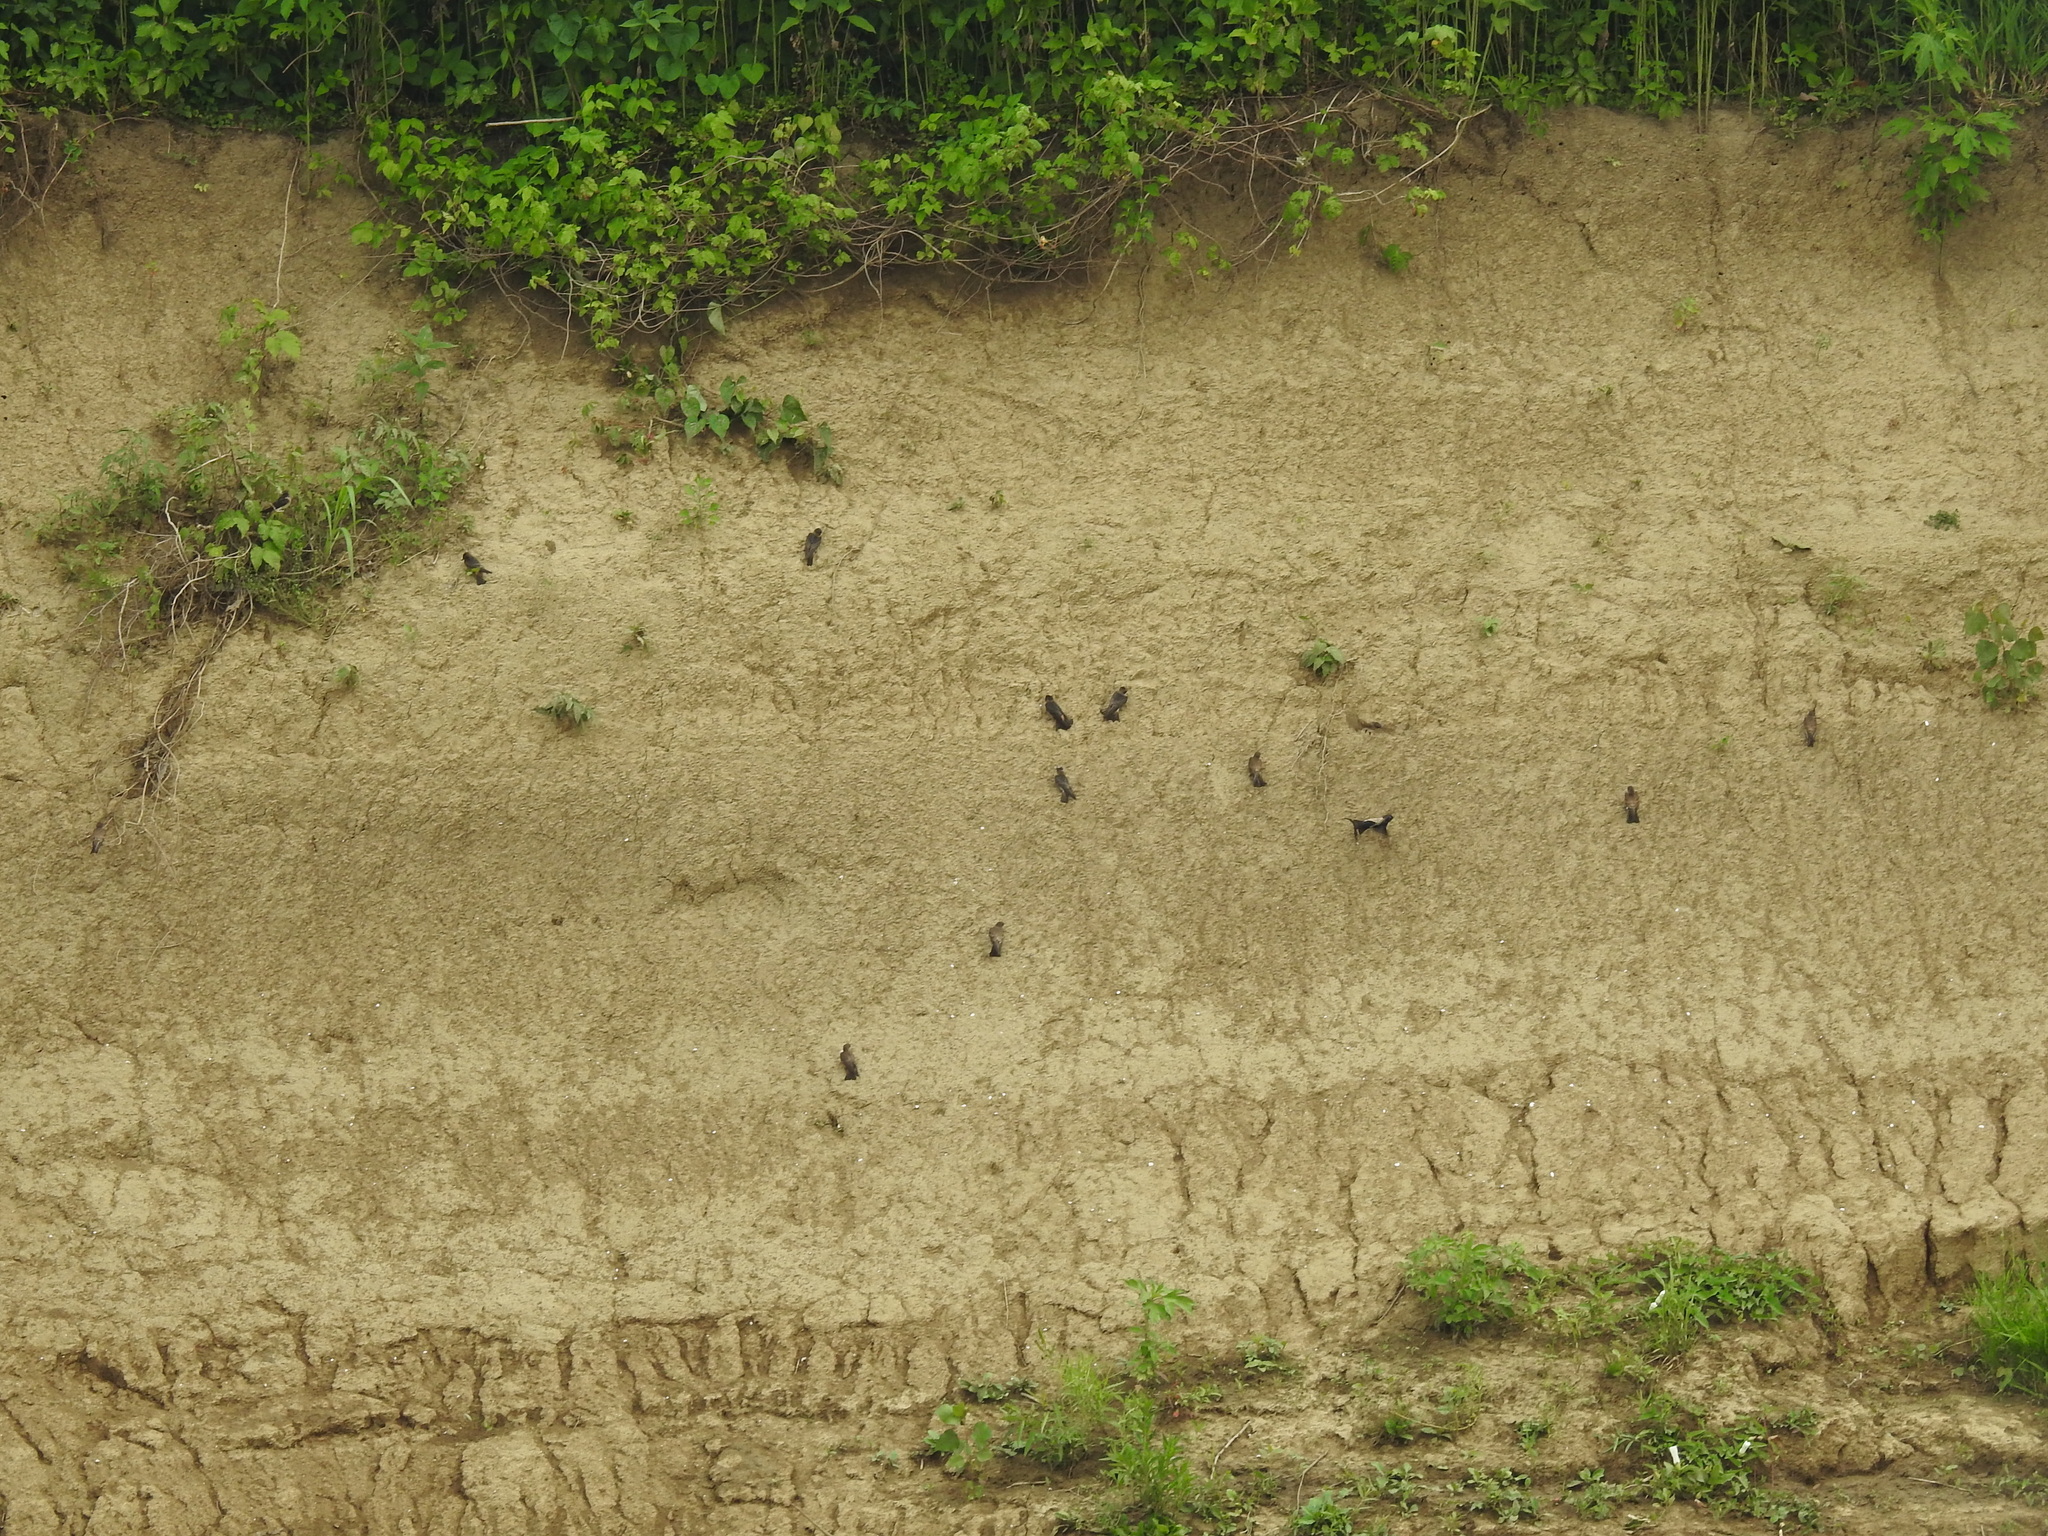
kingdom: Animalia
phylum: Chordata
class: Aves
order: Passeriformes
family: Hirundinidae
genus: Hirundo
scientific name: Hirundo rustica
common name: Barn swallow
